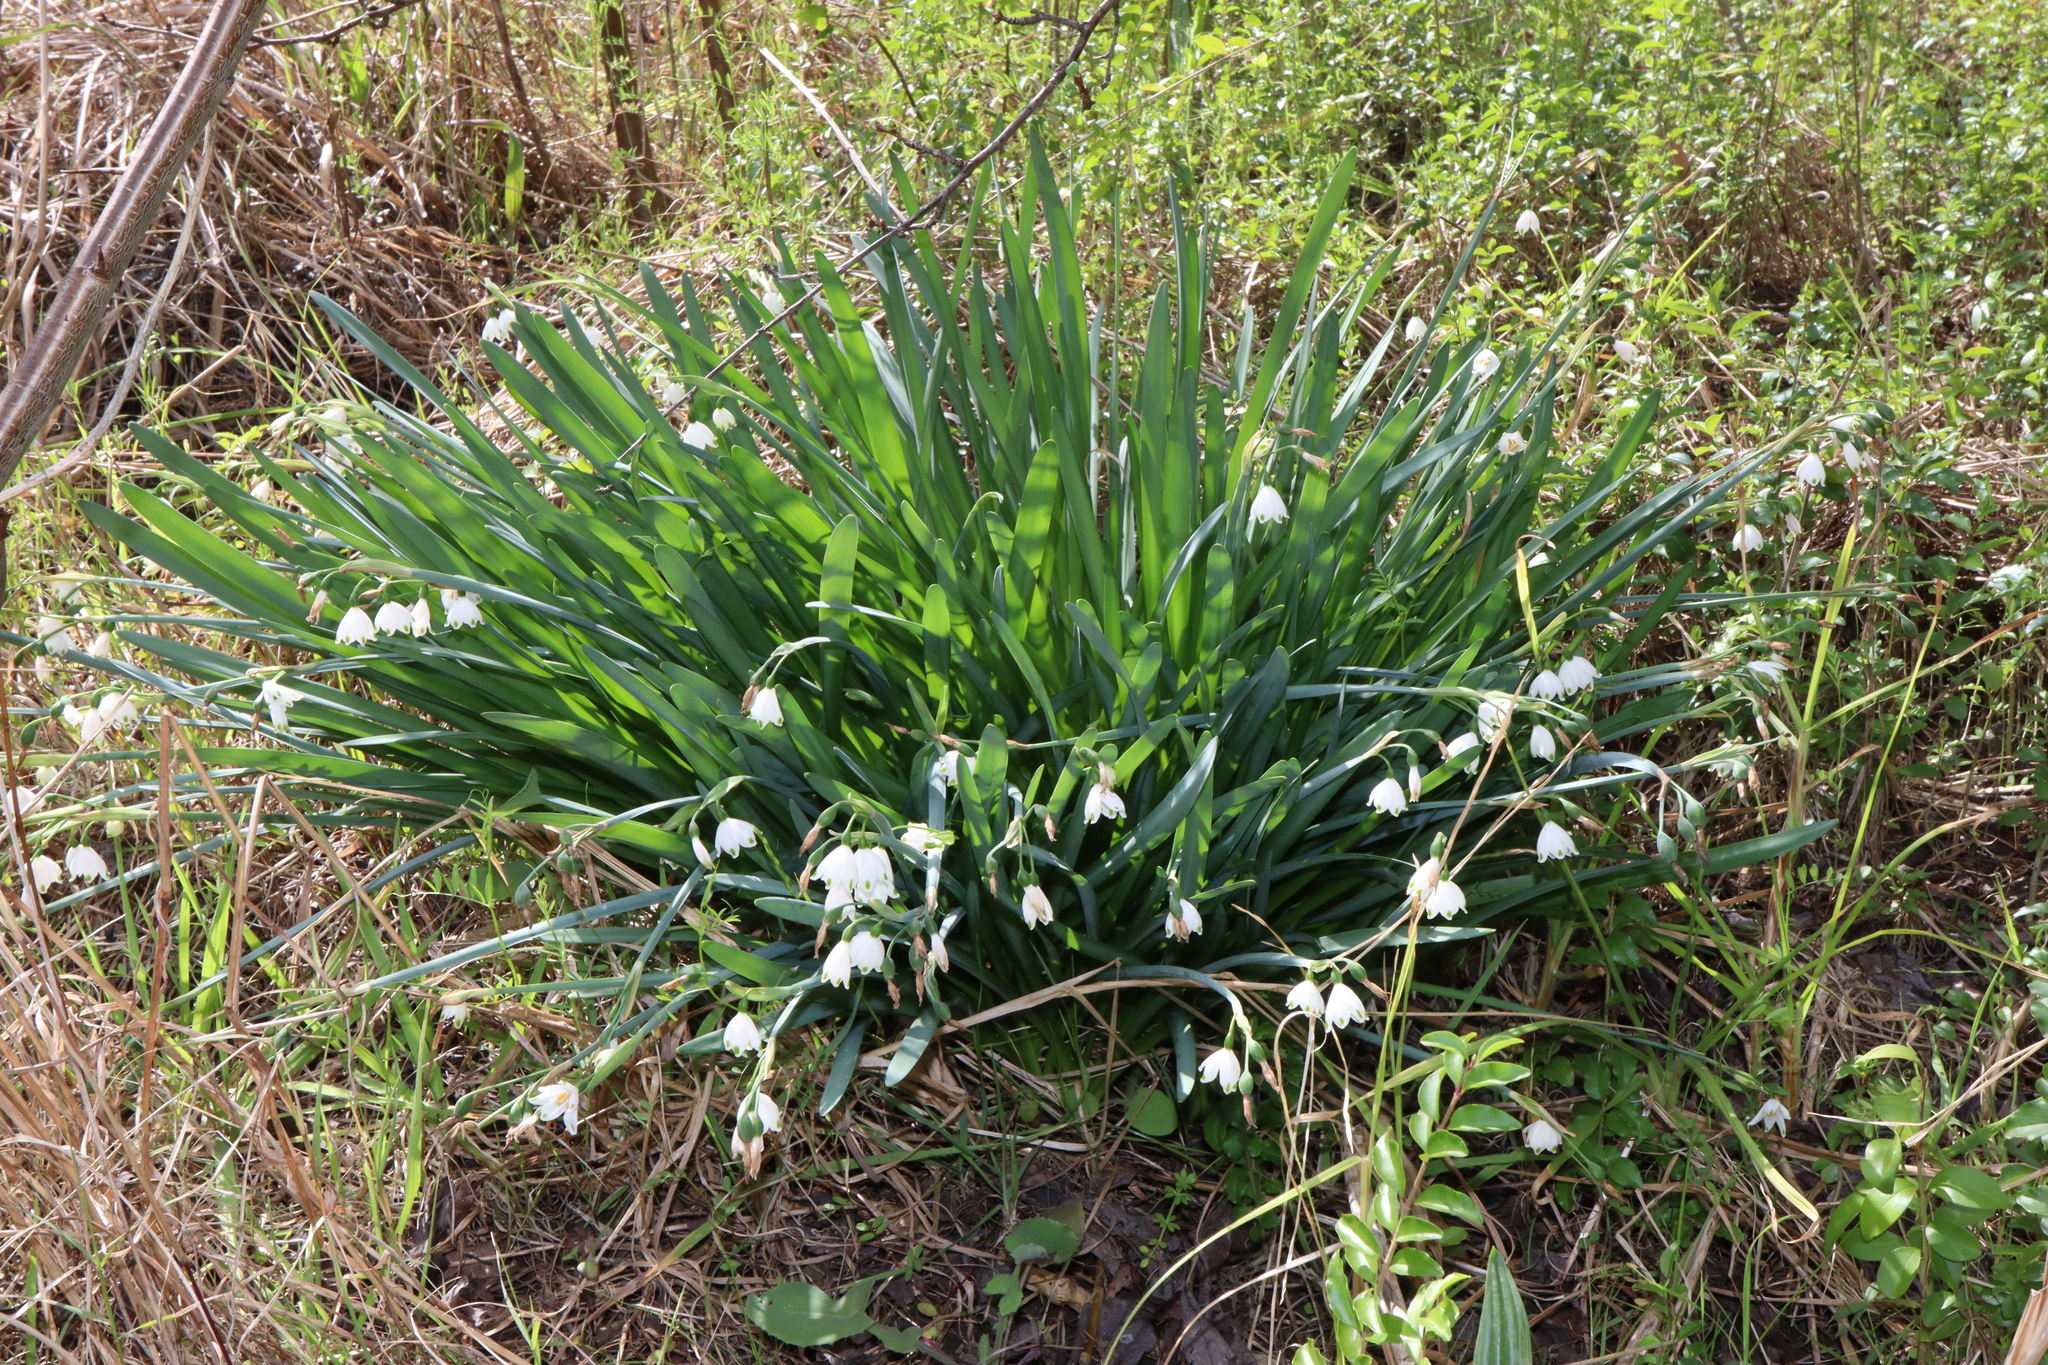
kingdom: Plantae
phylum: Tracheophyta
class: Liliopsida
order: Asparagales
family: Amaryllidaceae
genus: Leucojum
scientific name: Leucojum aestivum
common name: Summer snowflake
